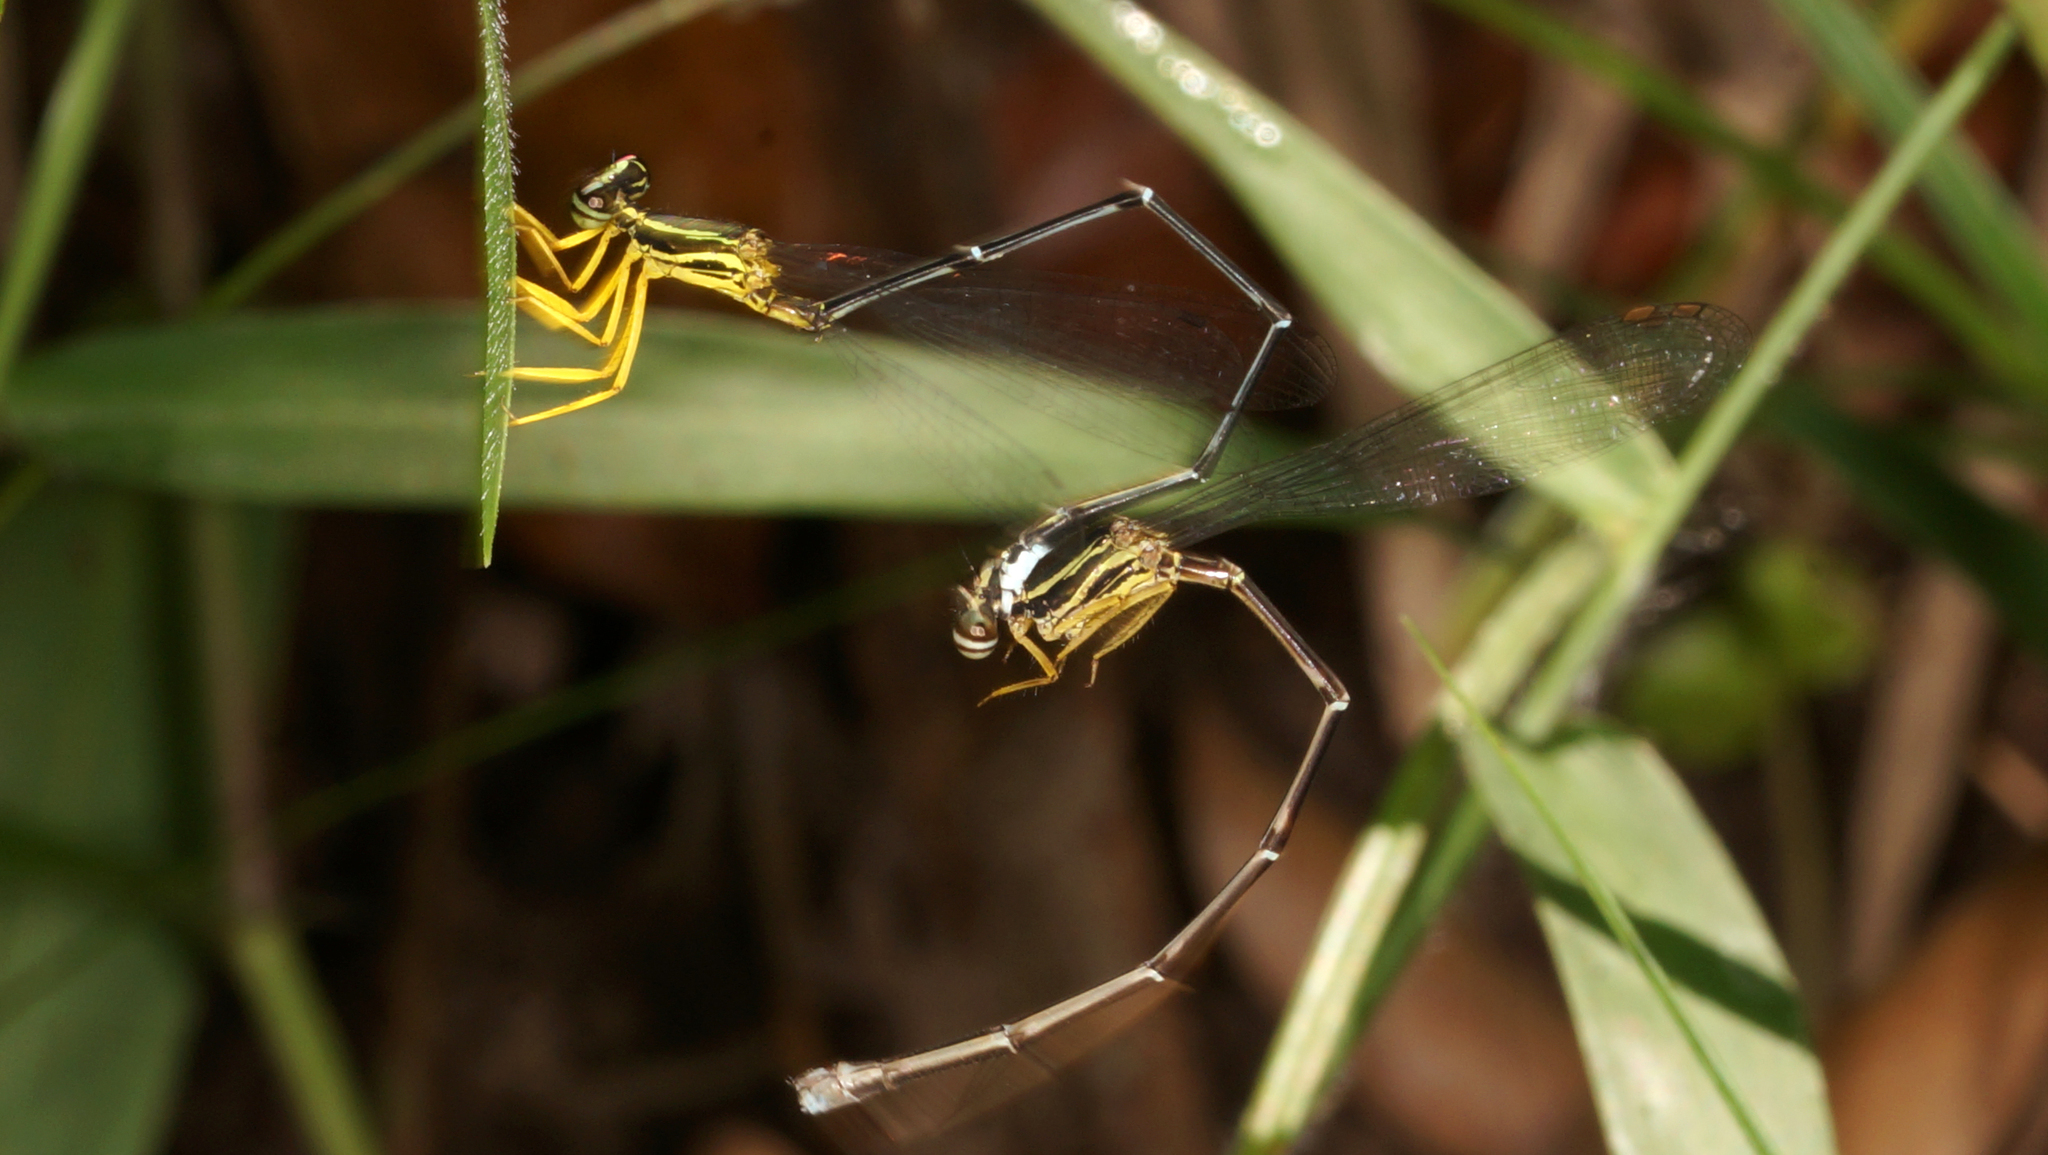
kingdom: Animalia
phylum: Arthropoda
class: Insecta
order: Odonata
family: Platycnemididae
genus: Copera
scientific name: Copera marginipes
